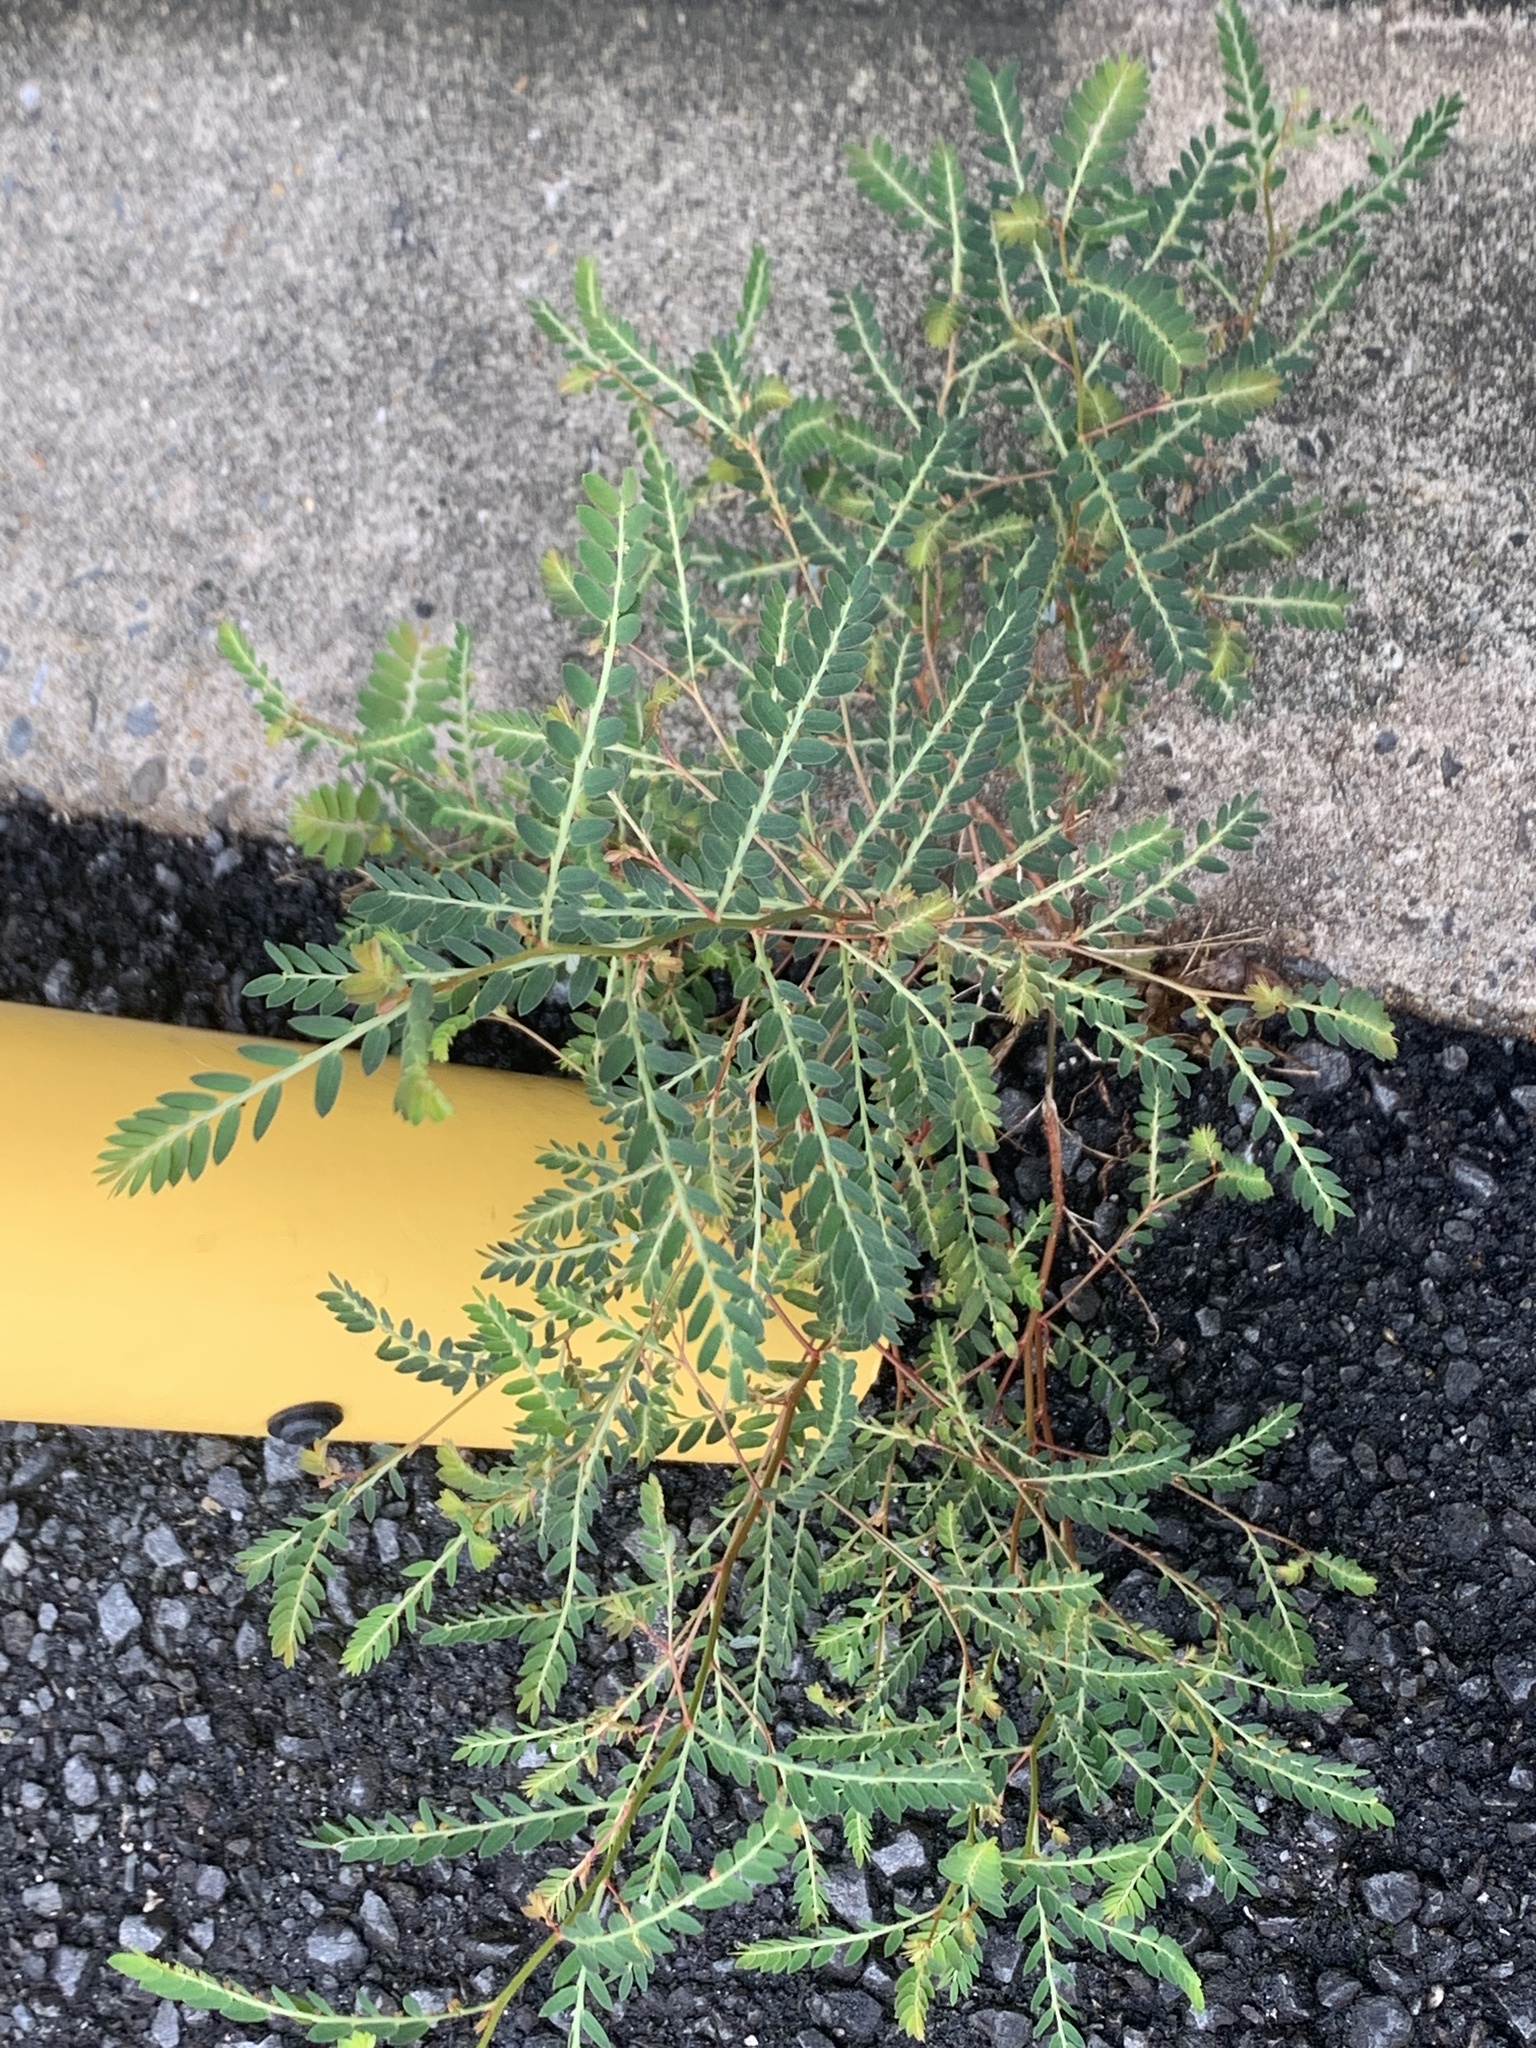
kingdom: Plantae
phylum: Tracheophyta
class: Magnoliopsida
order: Malpighiales
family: Phyllanthaceae
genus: Phyllanthus
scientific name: Phyllanthus urinaria
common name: Chamber bitter
